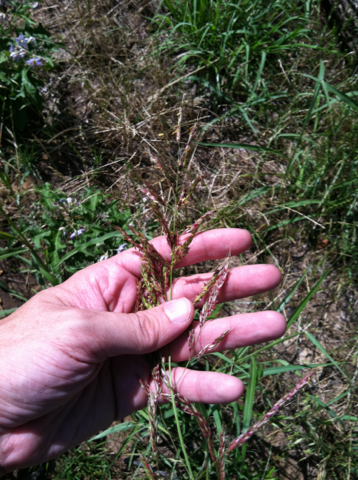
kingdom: Plantae
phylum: Tracheophyta
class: Liliopsida
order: Poales
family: Poaceae
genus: Sorghum
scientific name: Sorghum halepense
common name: Johnson-grass
